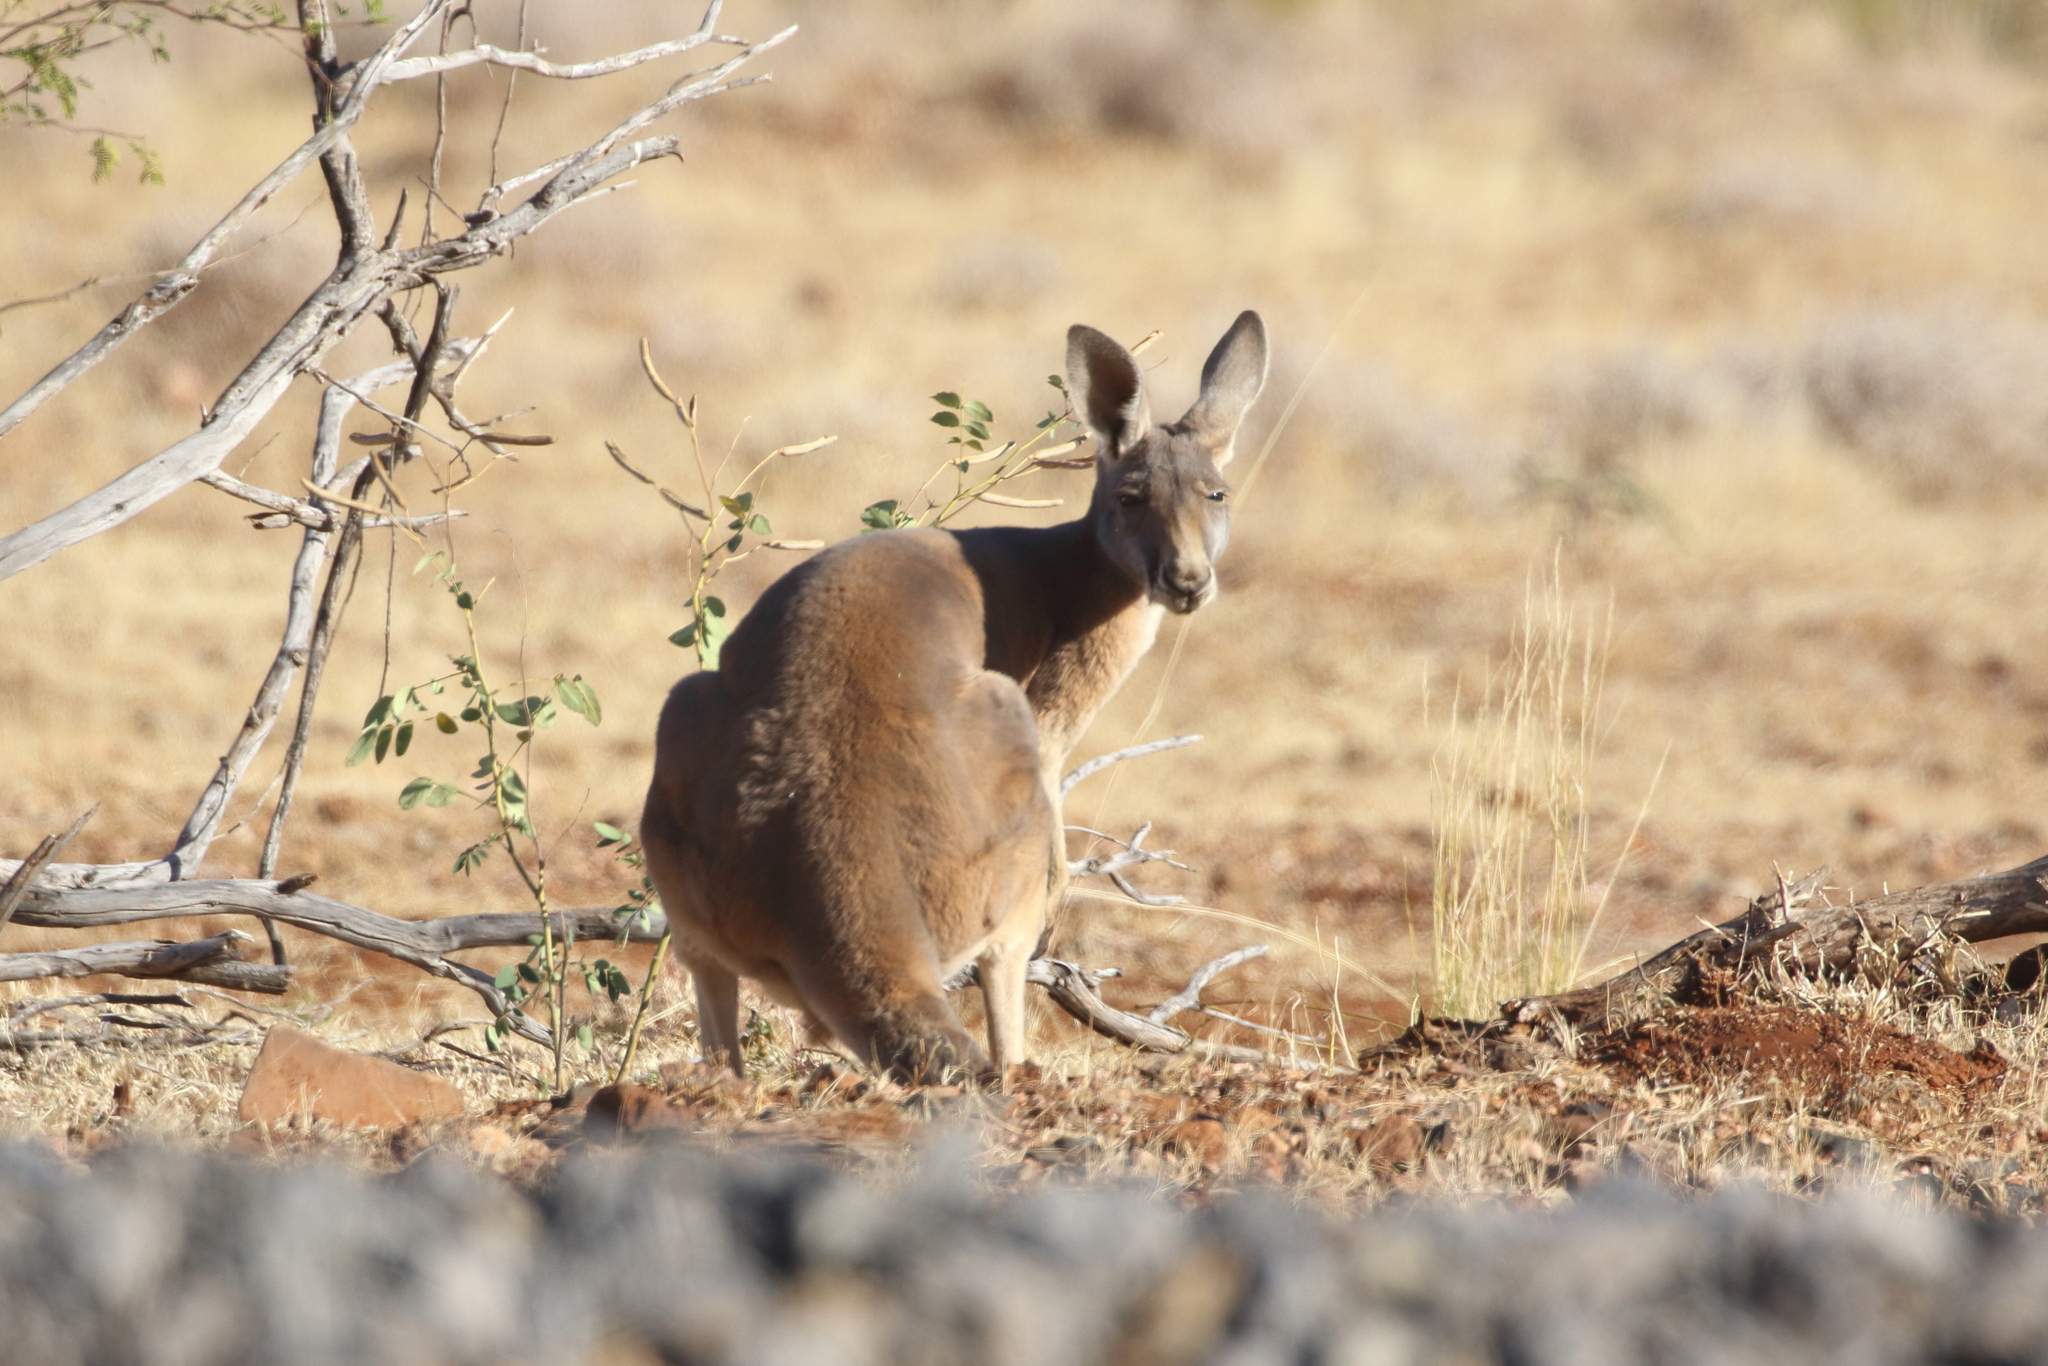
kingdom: Animalia
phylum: Chordata
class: Mammalia
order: Diprotodontia
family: Macropodidae
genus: Macropus
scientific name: Macropus rufus
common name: Red kangaroo
